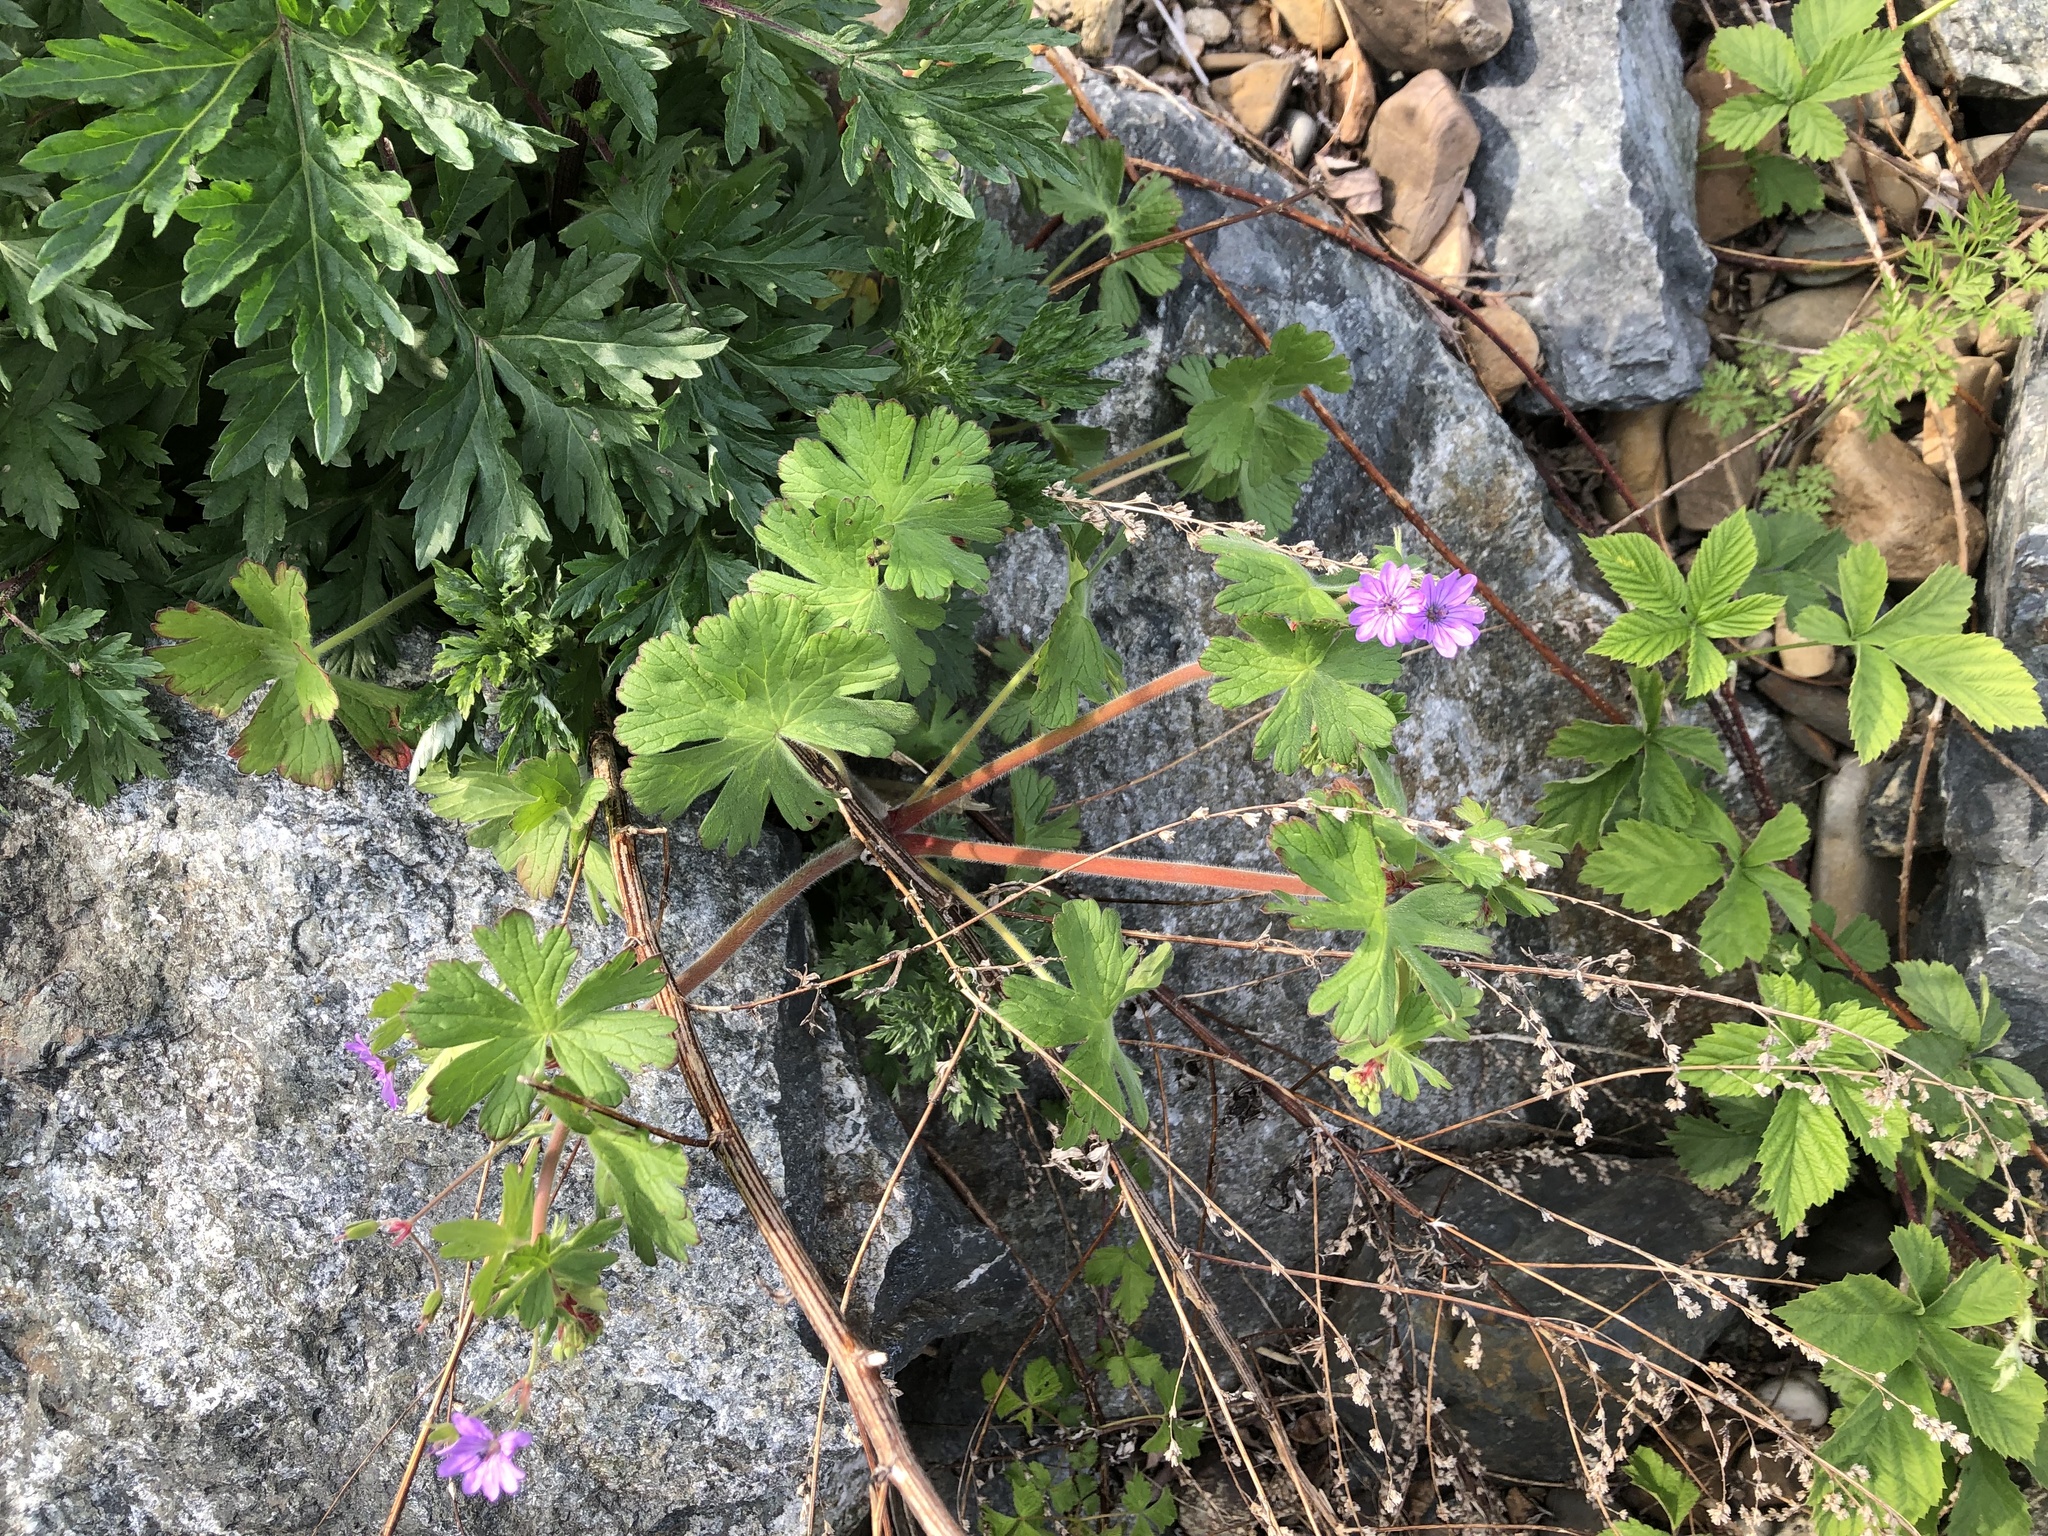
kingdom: Plantae
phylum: Tracheophyta
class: Magnoliopsida
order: Geraniales
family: Geraniaceae
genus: Geranium
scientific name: Geranium pyrenaicum
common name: Hedgerow crane's-bill
